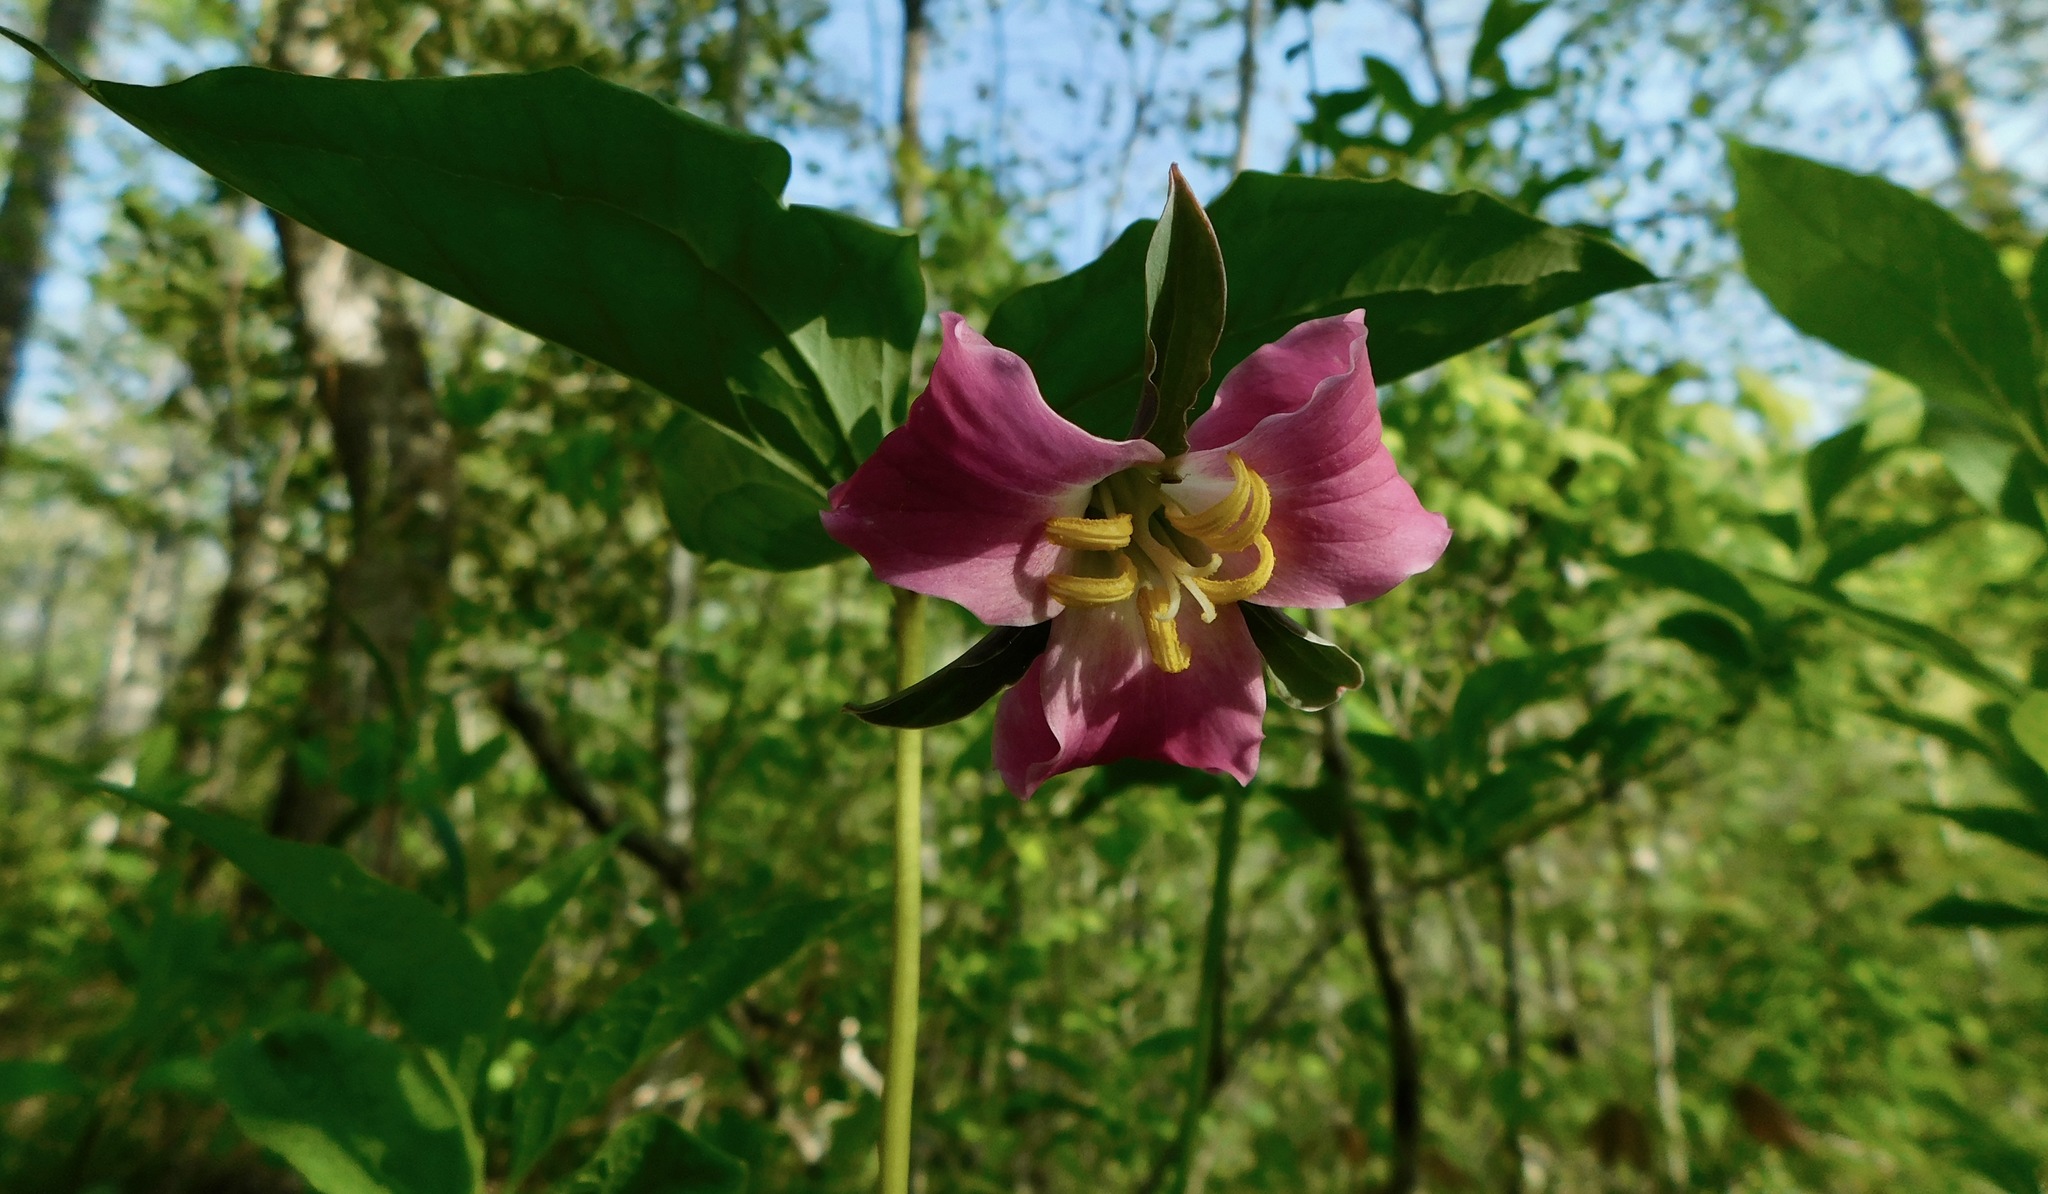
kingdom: Plantae
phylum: Tracheophyta
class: Liliopsida
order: Liliales
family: Melanthiaceae
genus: Trillium
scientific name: Trillium catesbaei
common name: Bashful trillium
